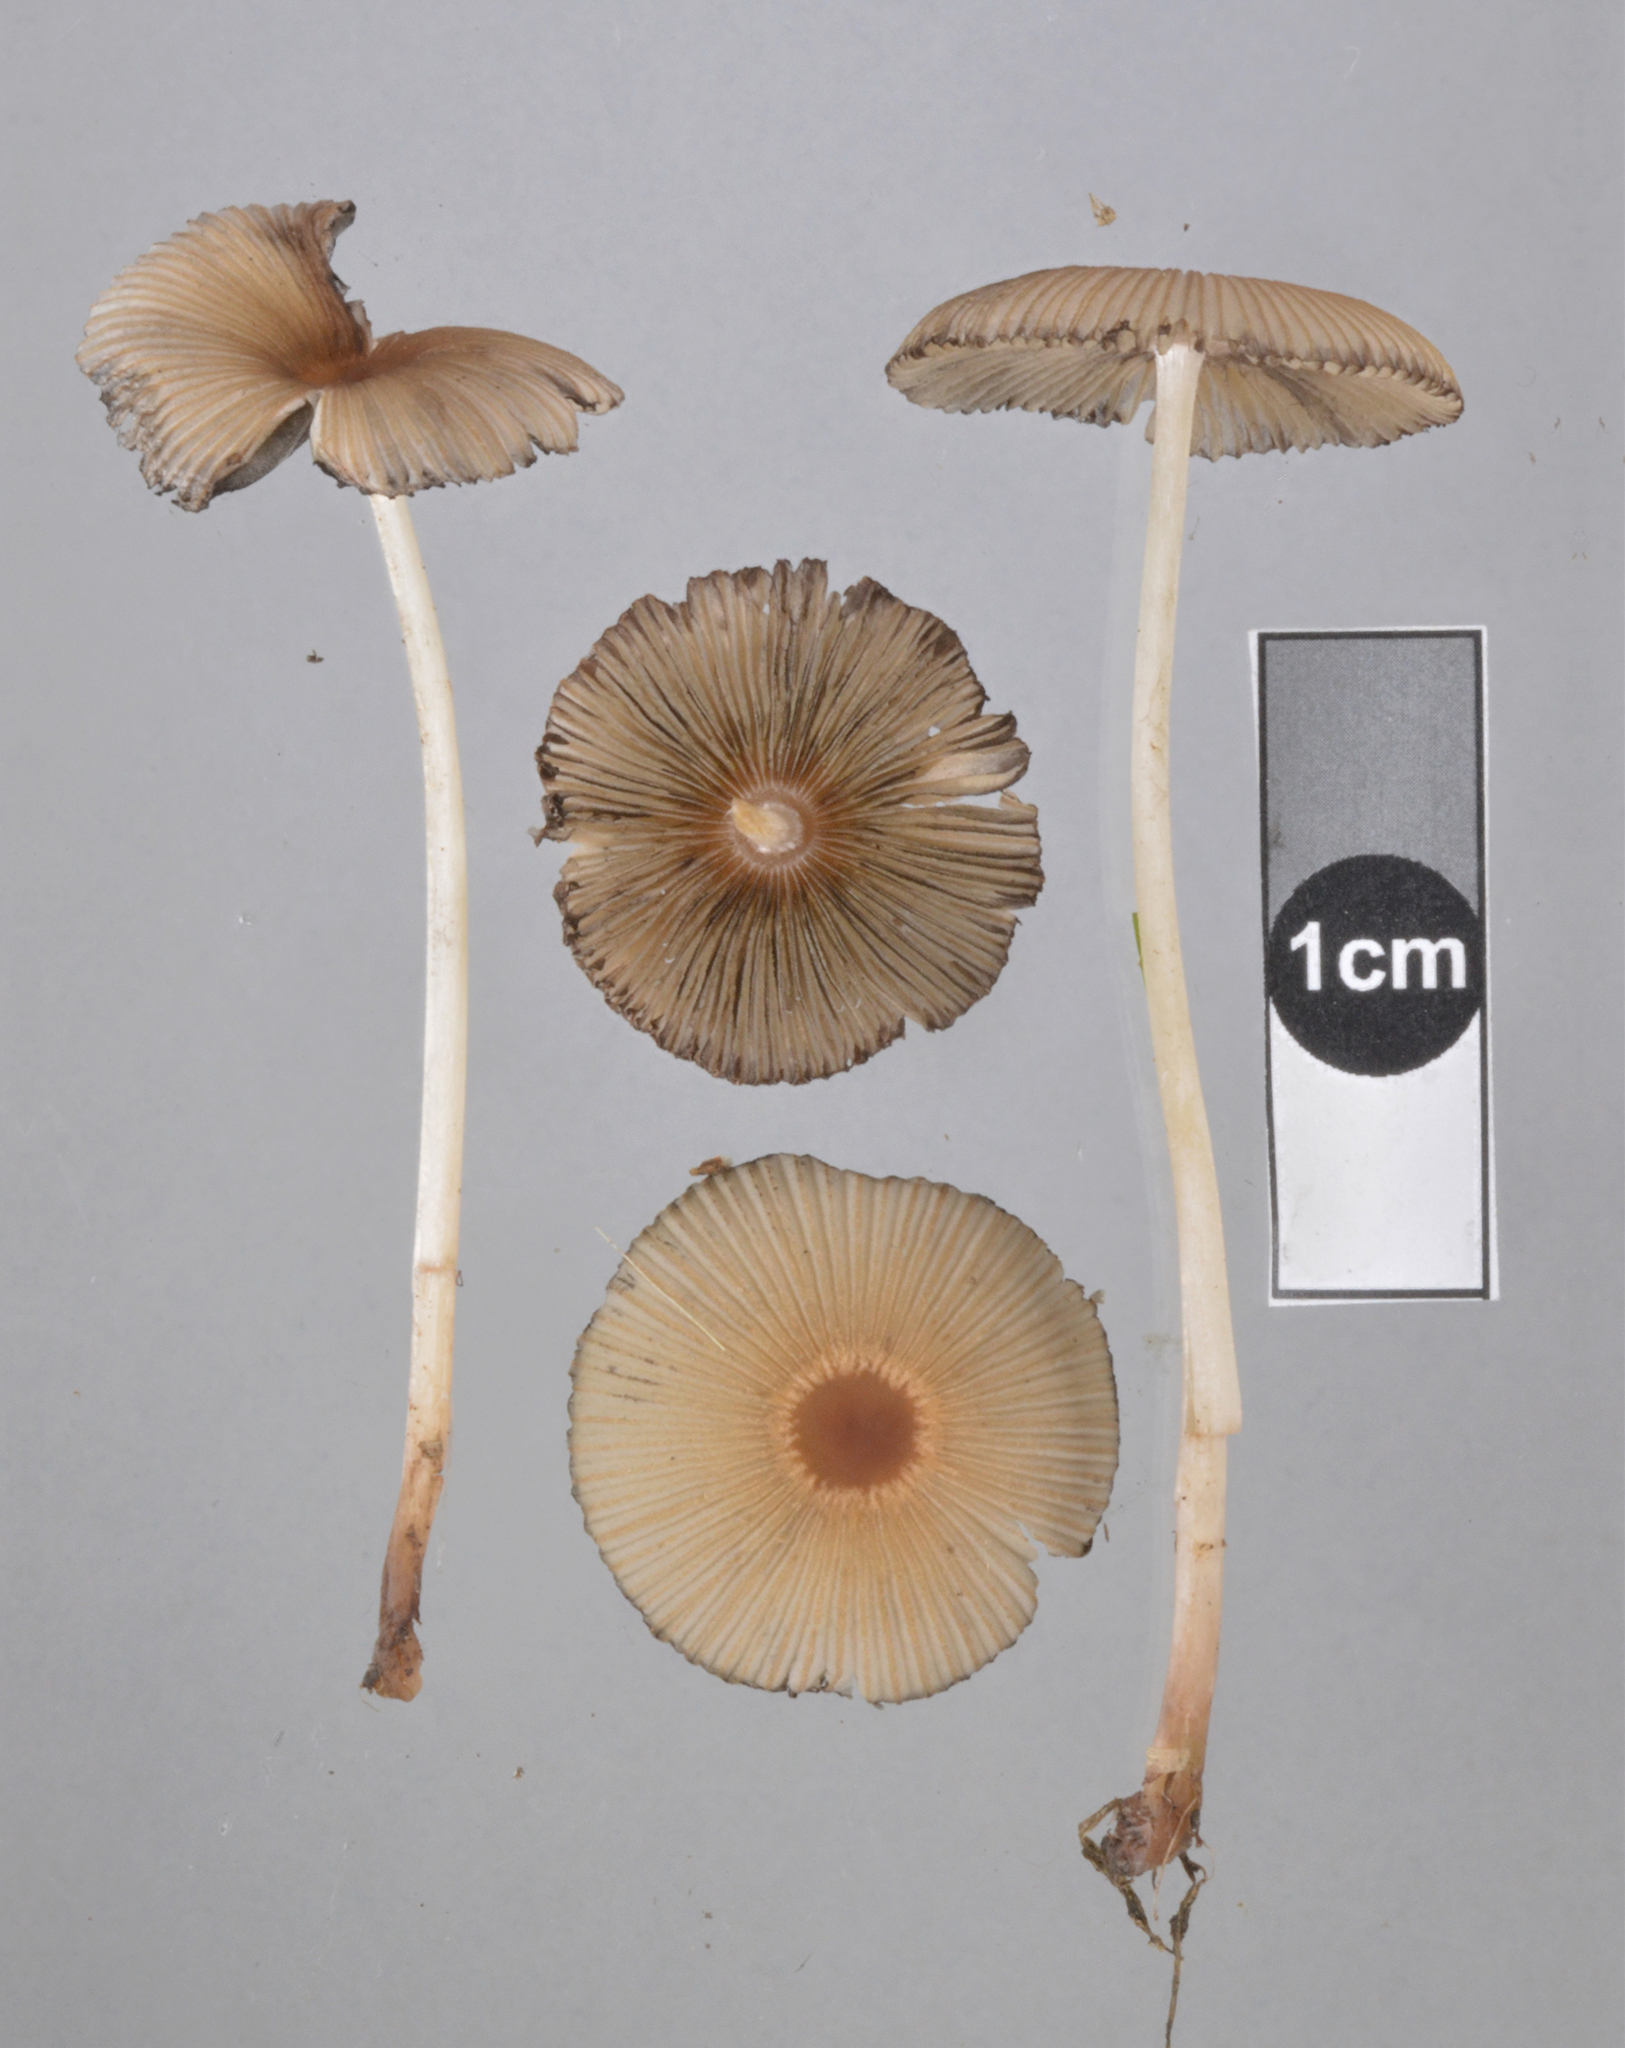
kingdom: Fungi
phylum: Basidiomycota
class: Agaricomycetes
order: Agaricales
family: Psathyrellaceae
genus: Parasola
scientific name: Parasola kuehneri
